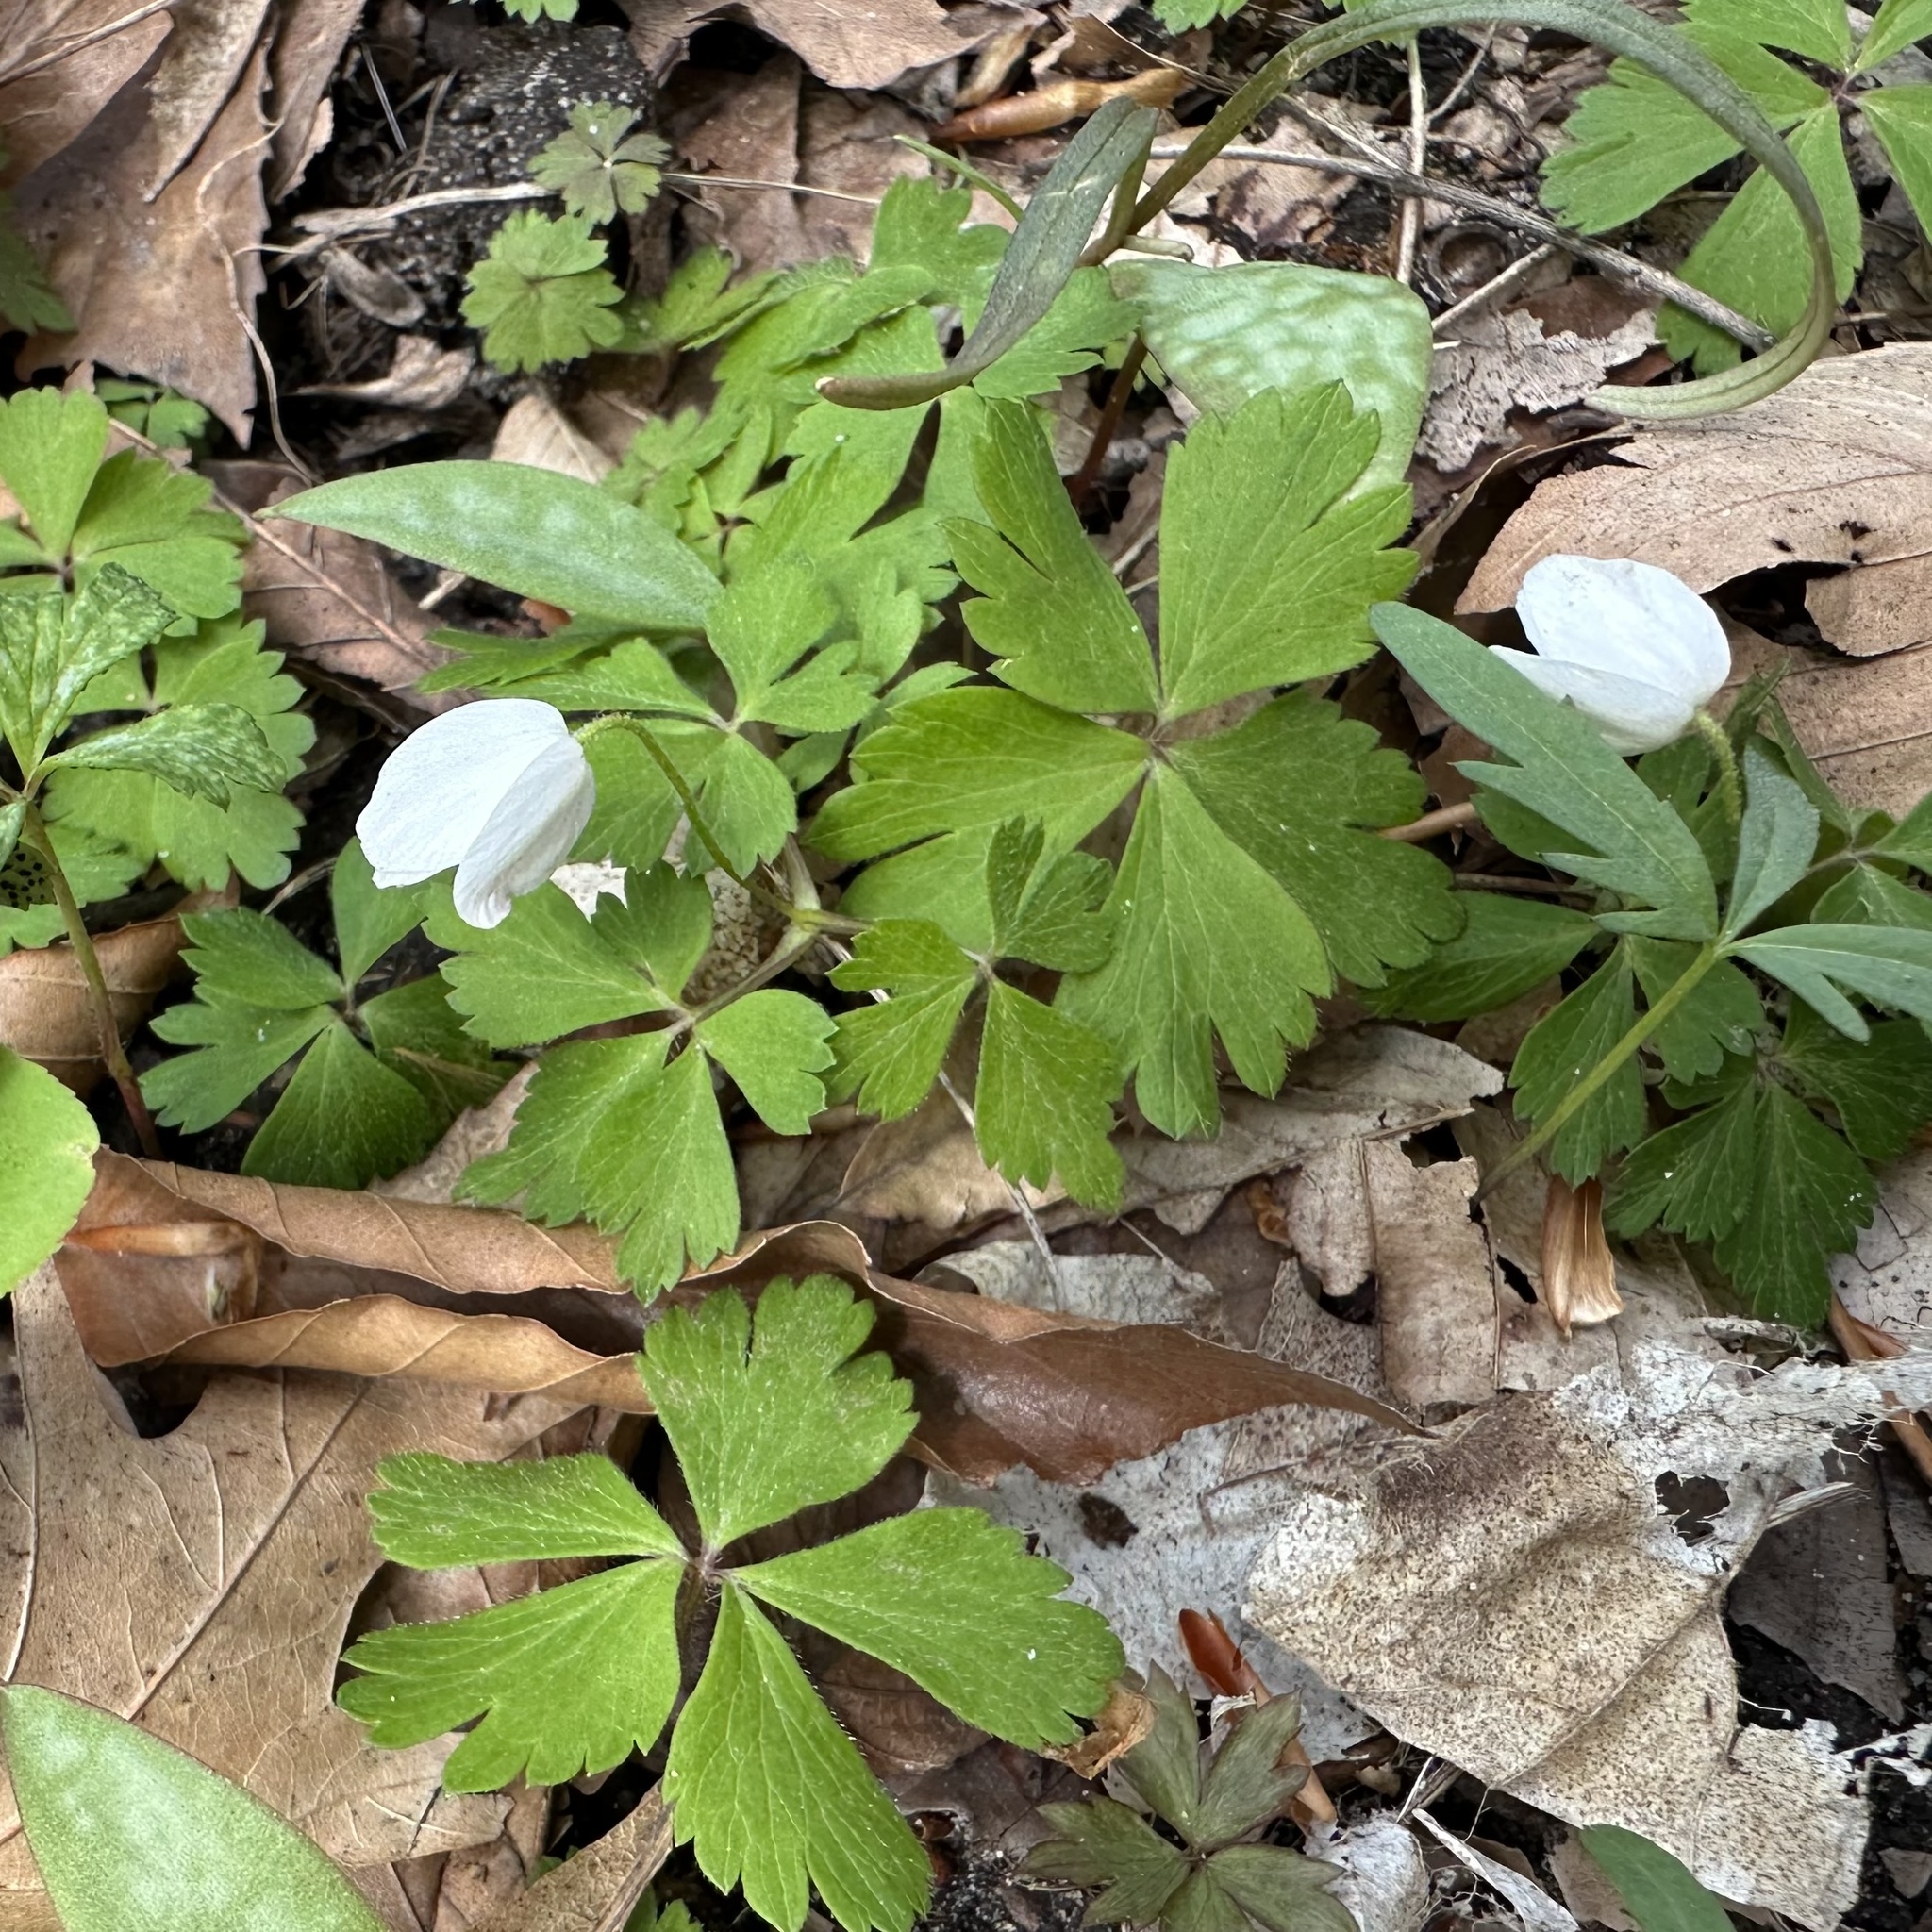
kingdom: Plantae
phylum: Tracheophyta
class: Magnoliopsida
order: Ranunculales
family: Ranunculaceae
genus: Anemone
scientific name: Anemone quinquefolia
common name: Wood anemone
